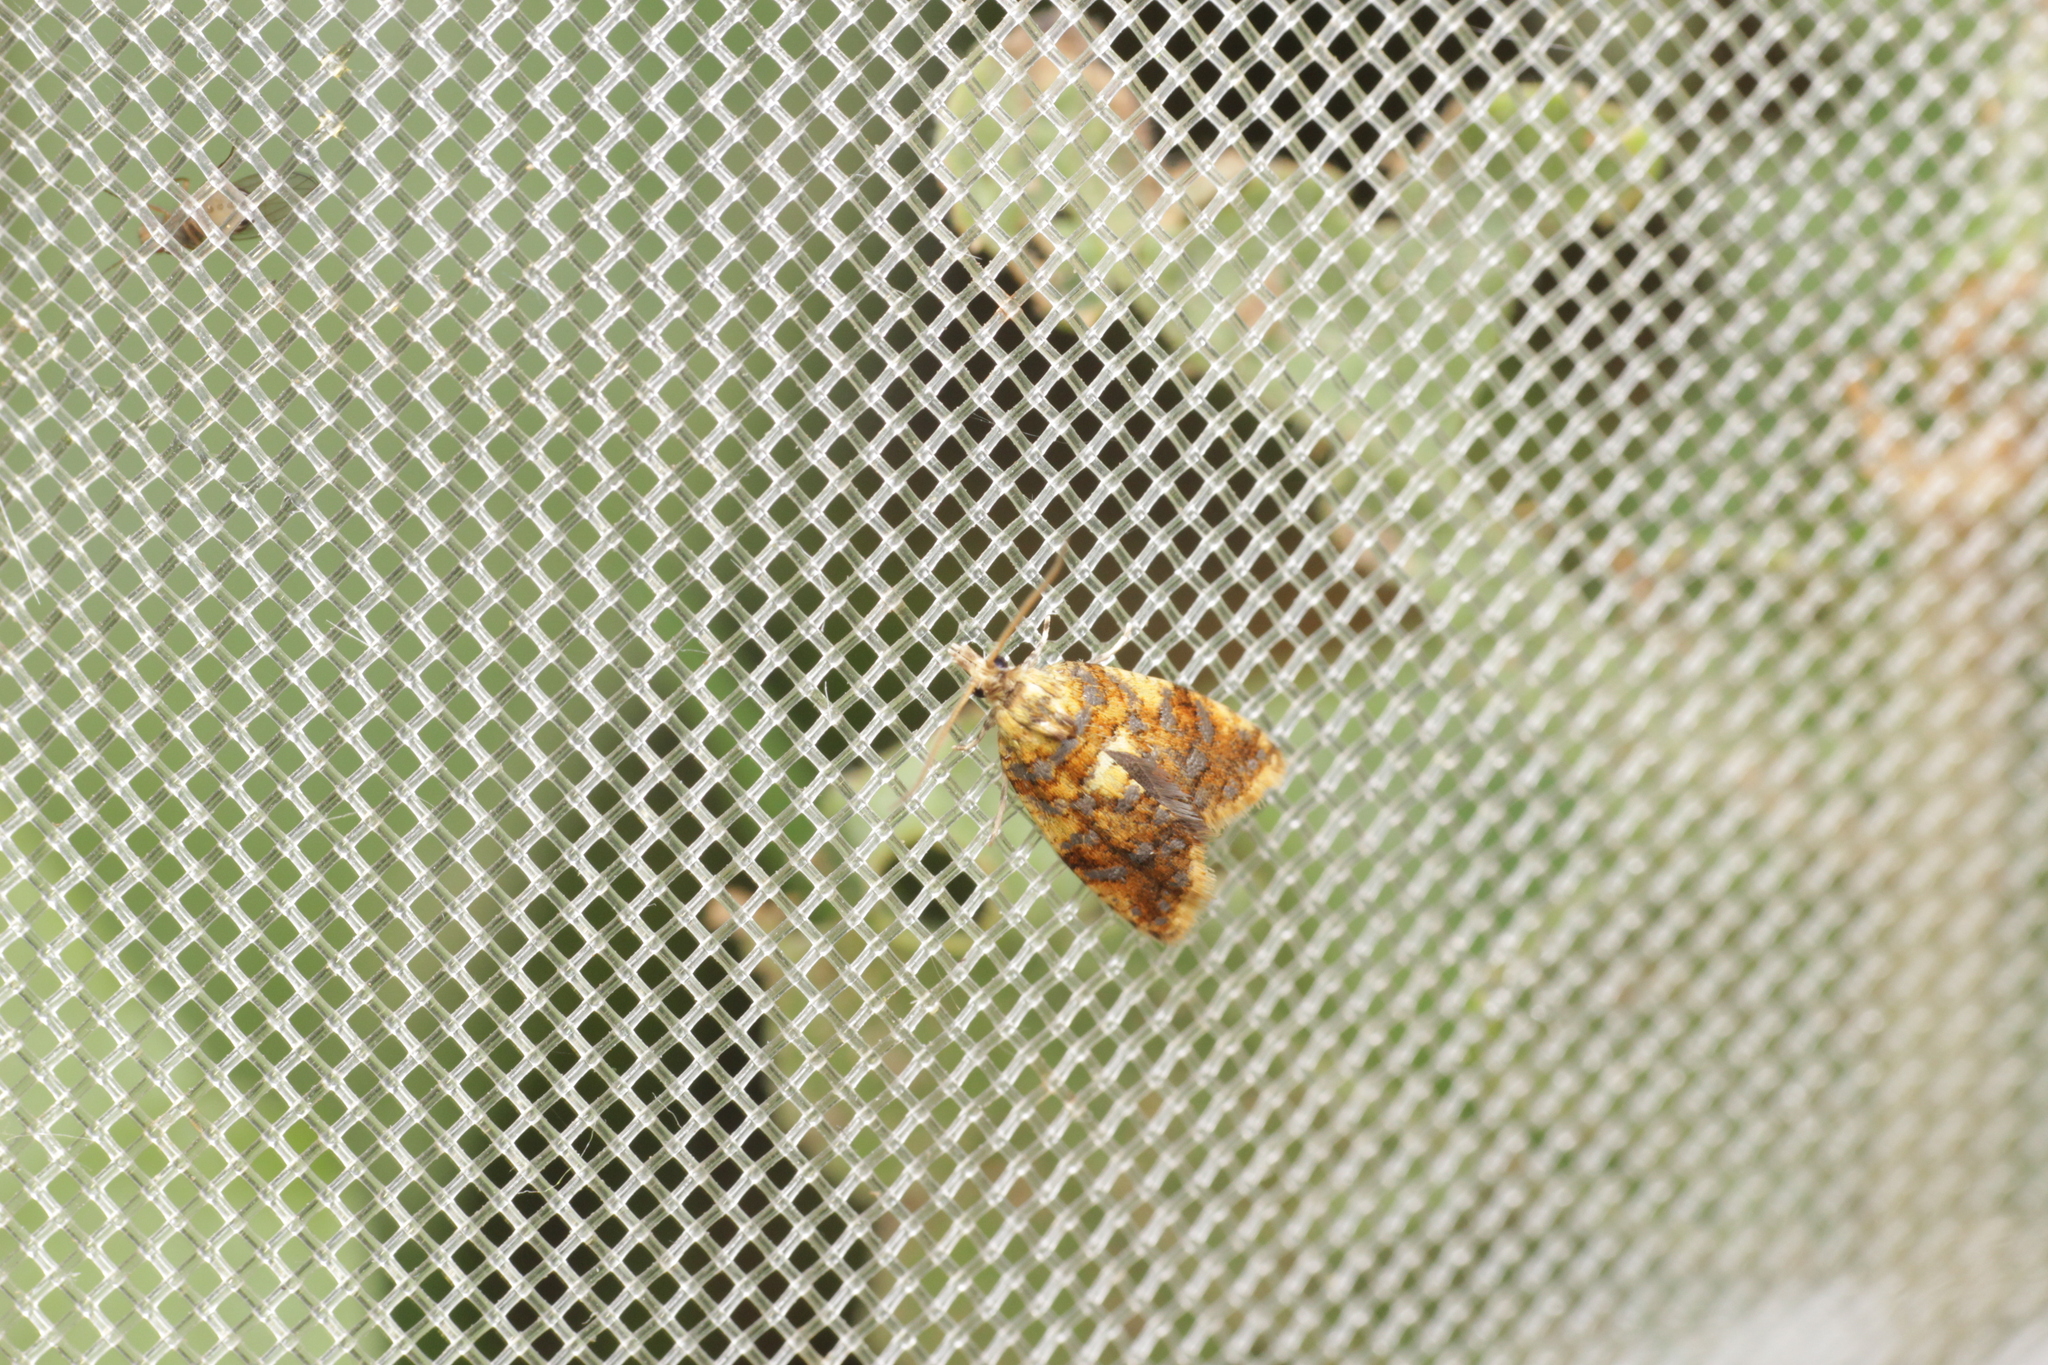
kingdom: Animalia
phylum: Arthropoda
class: Insecta
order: Lepidoptera
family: Tortricidae
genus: Pseudargyrotoza
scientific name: Pseudargyrotoza conwagana
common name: Yellow-spot twist
